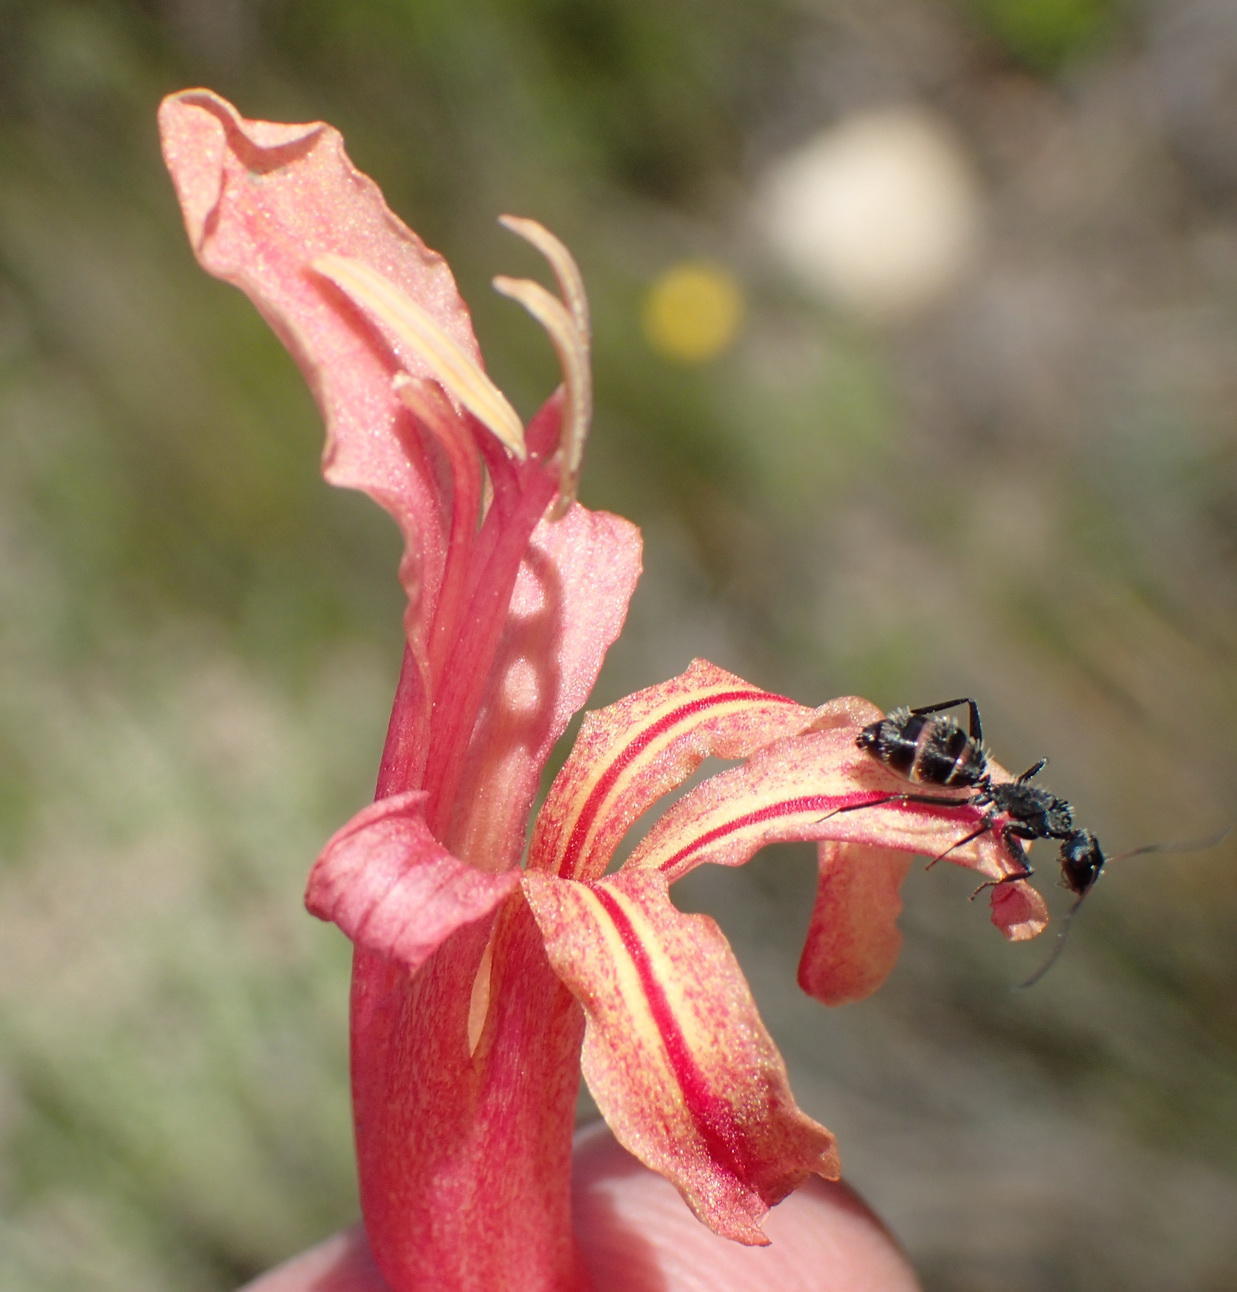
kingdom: Plantae
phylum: Tracheophyta
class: Liliopsida
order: Asparagales
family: Iridaceae
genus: Tritoniopsis
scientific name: Tritoniopsis antholyza
